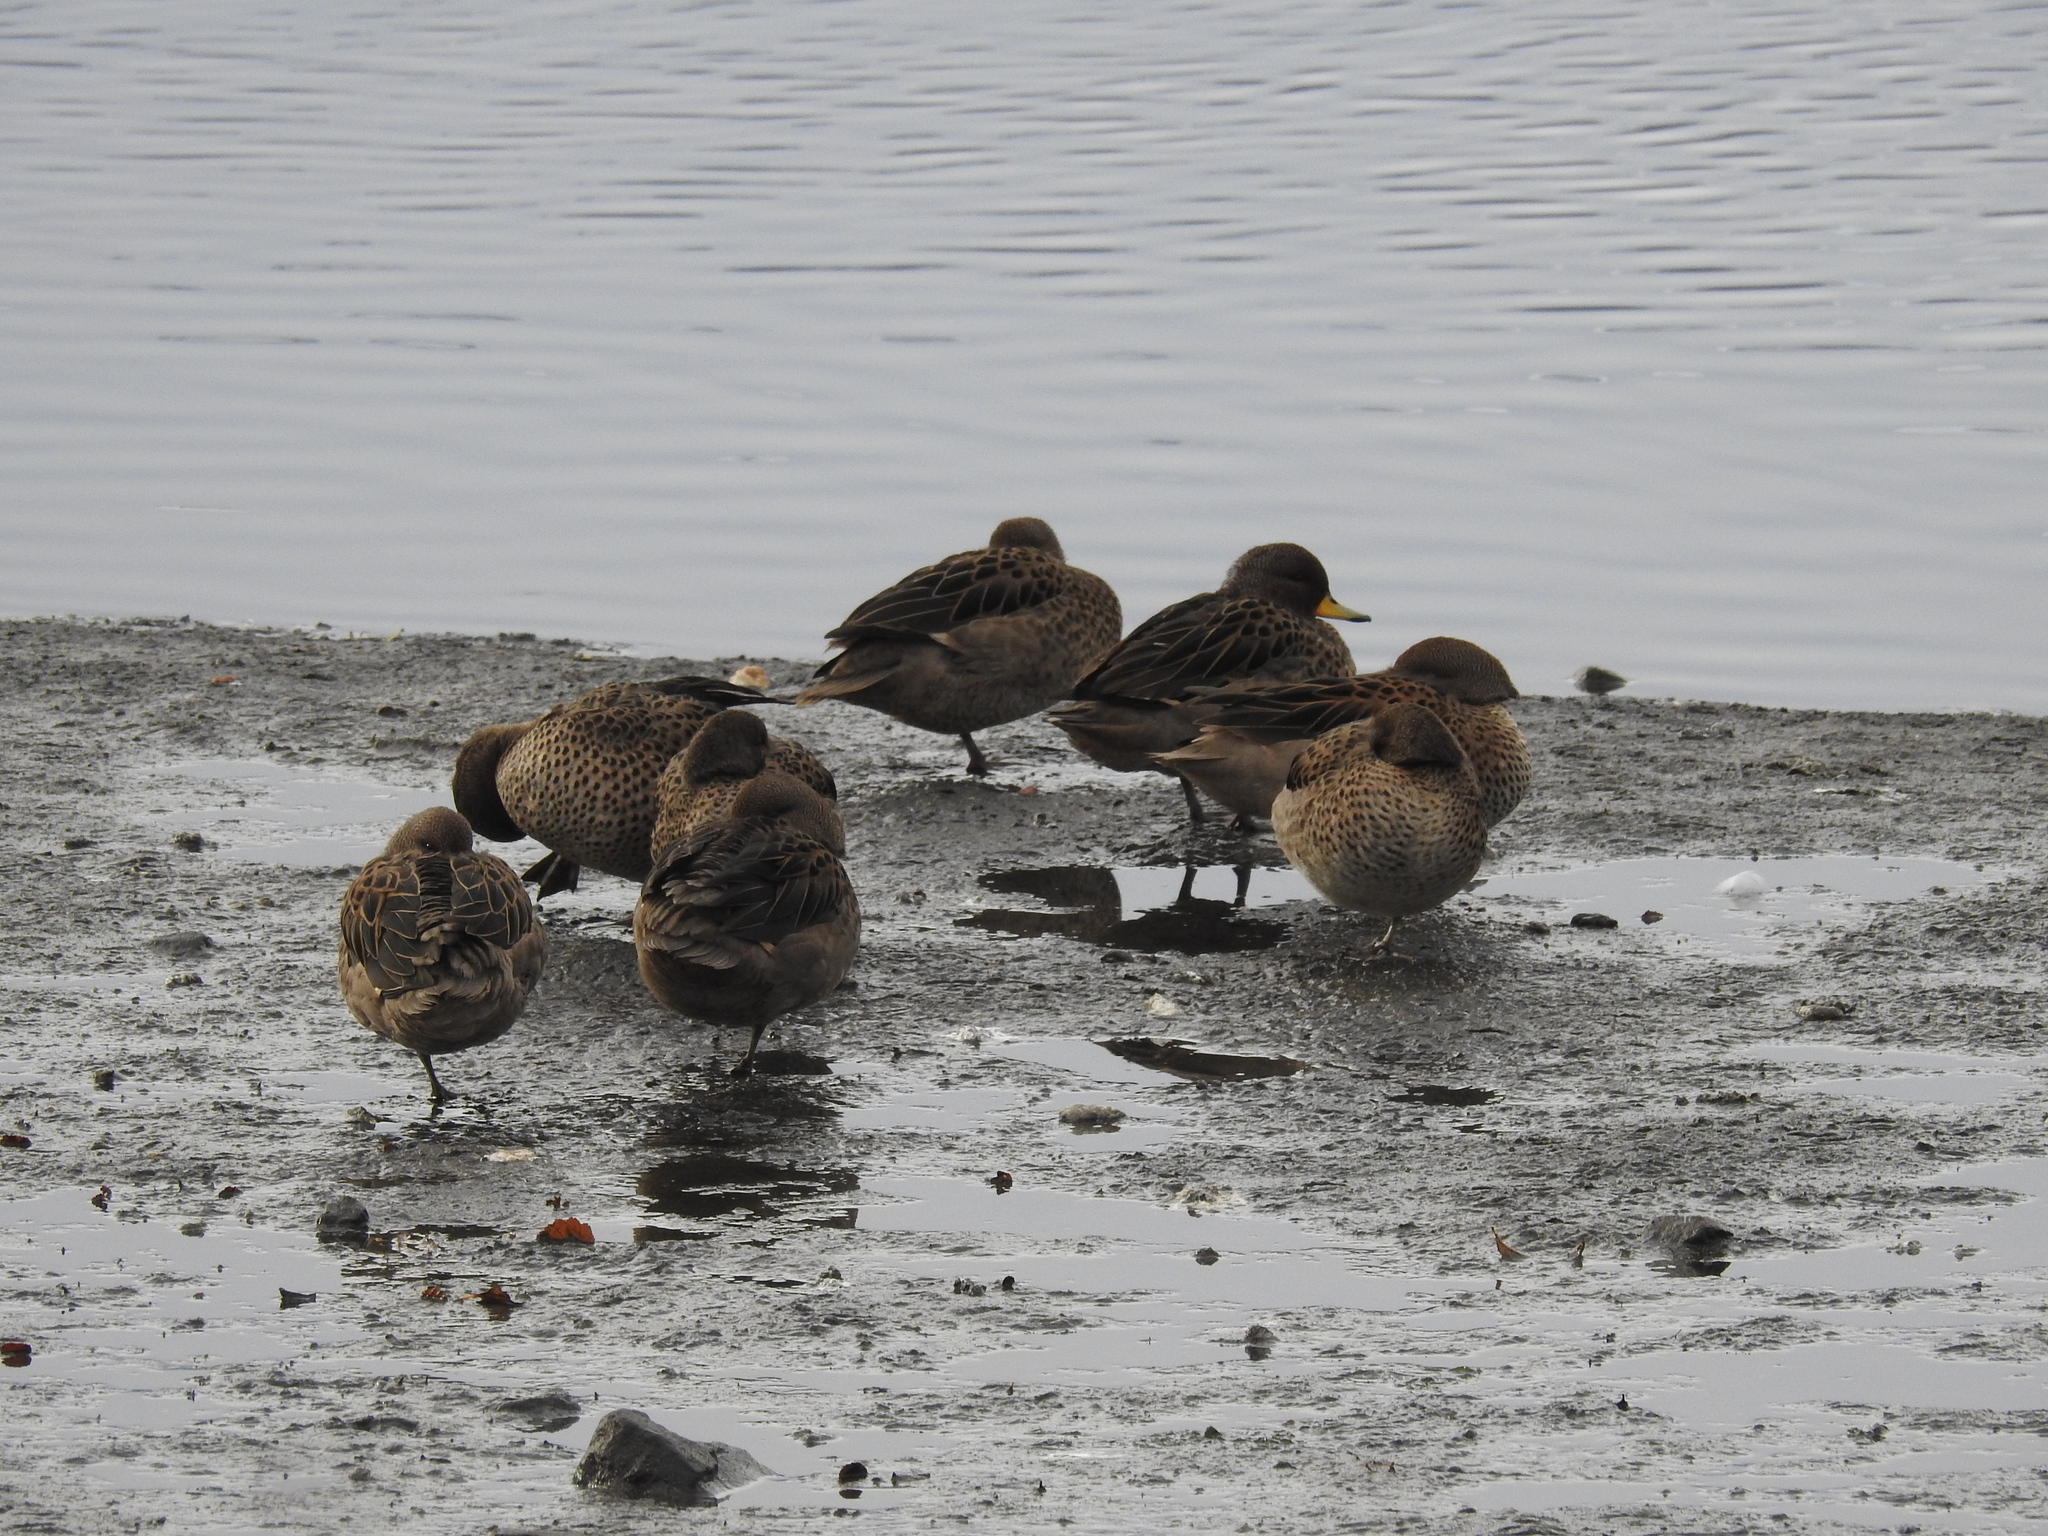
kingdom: Animalia
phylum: Chordata
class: Aves
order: Anseriformes
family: Anatidae
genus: Anas
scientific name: Anas flavirostris
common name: Yellow-billed teal
